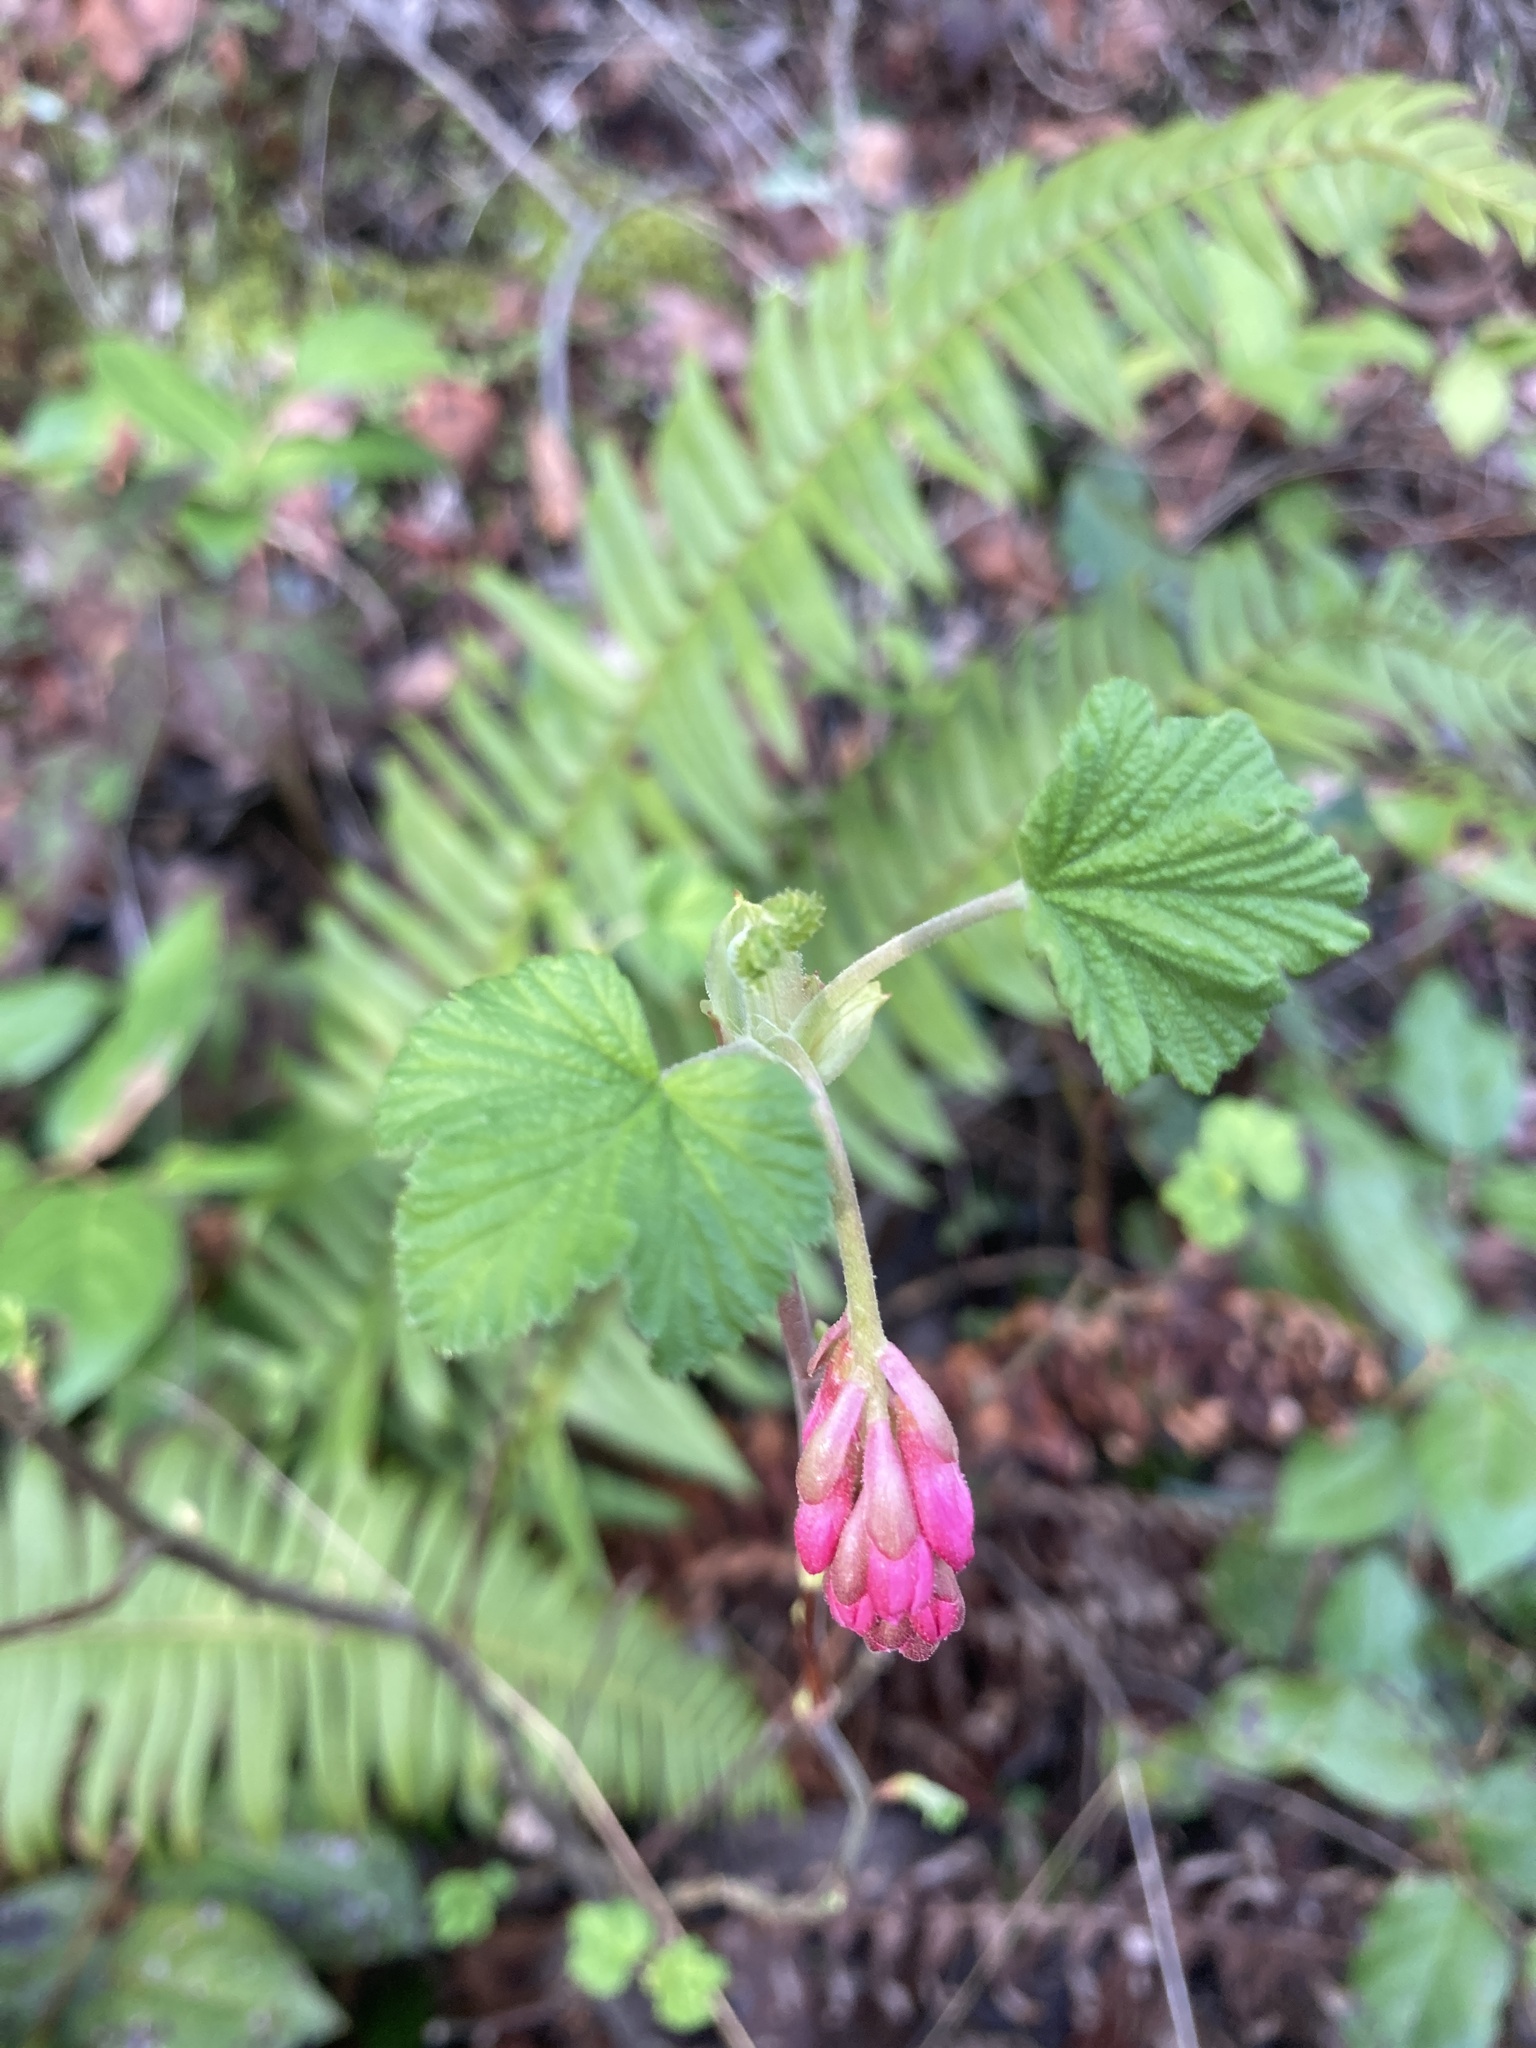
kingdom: Plantae
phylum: Tracheophyta
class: Magnoliopsida
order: Saxifragales
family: Grossulariaceae
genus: Ribes
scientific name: Ribes sanguineum
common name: Flowering currant
